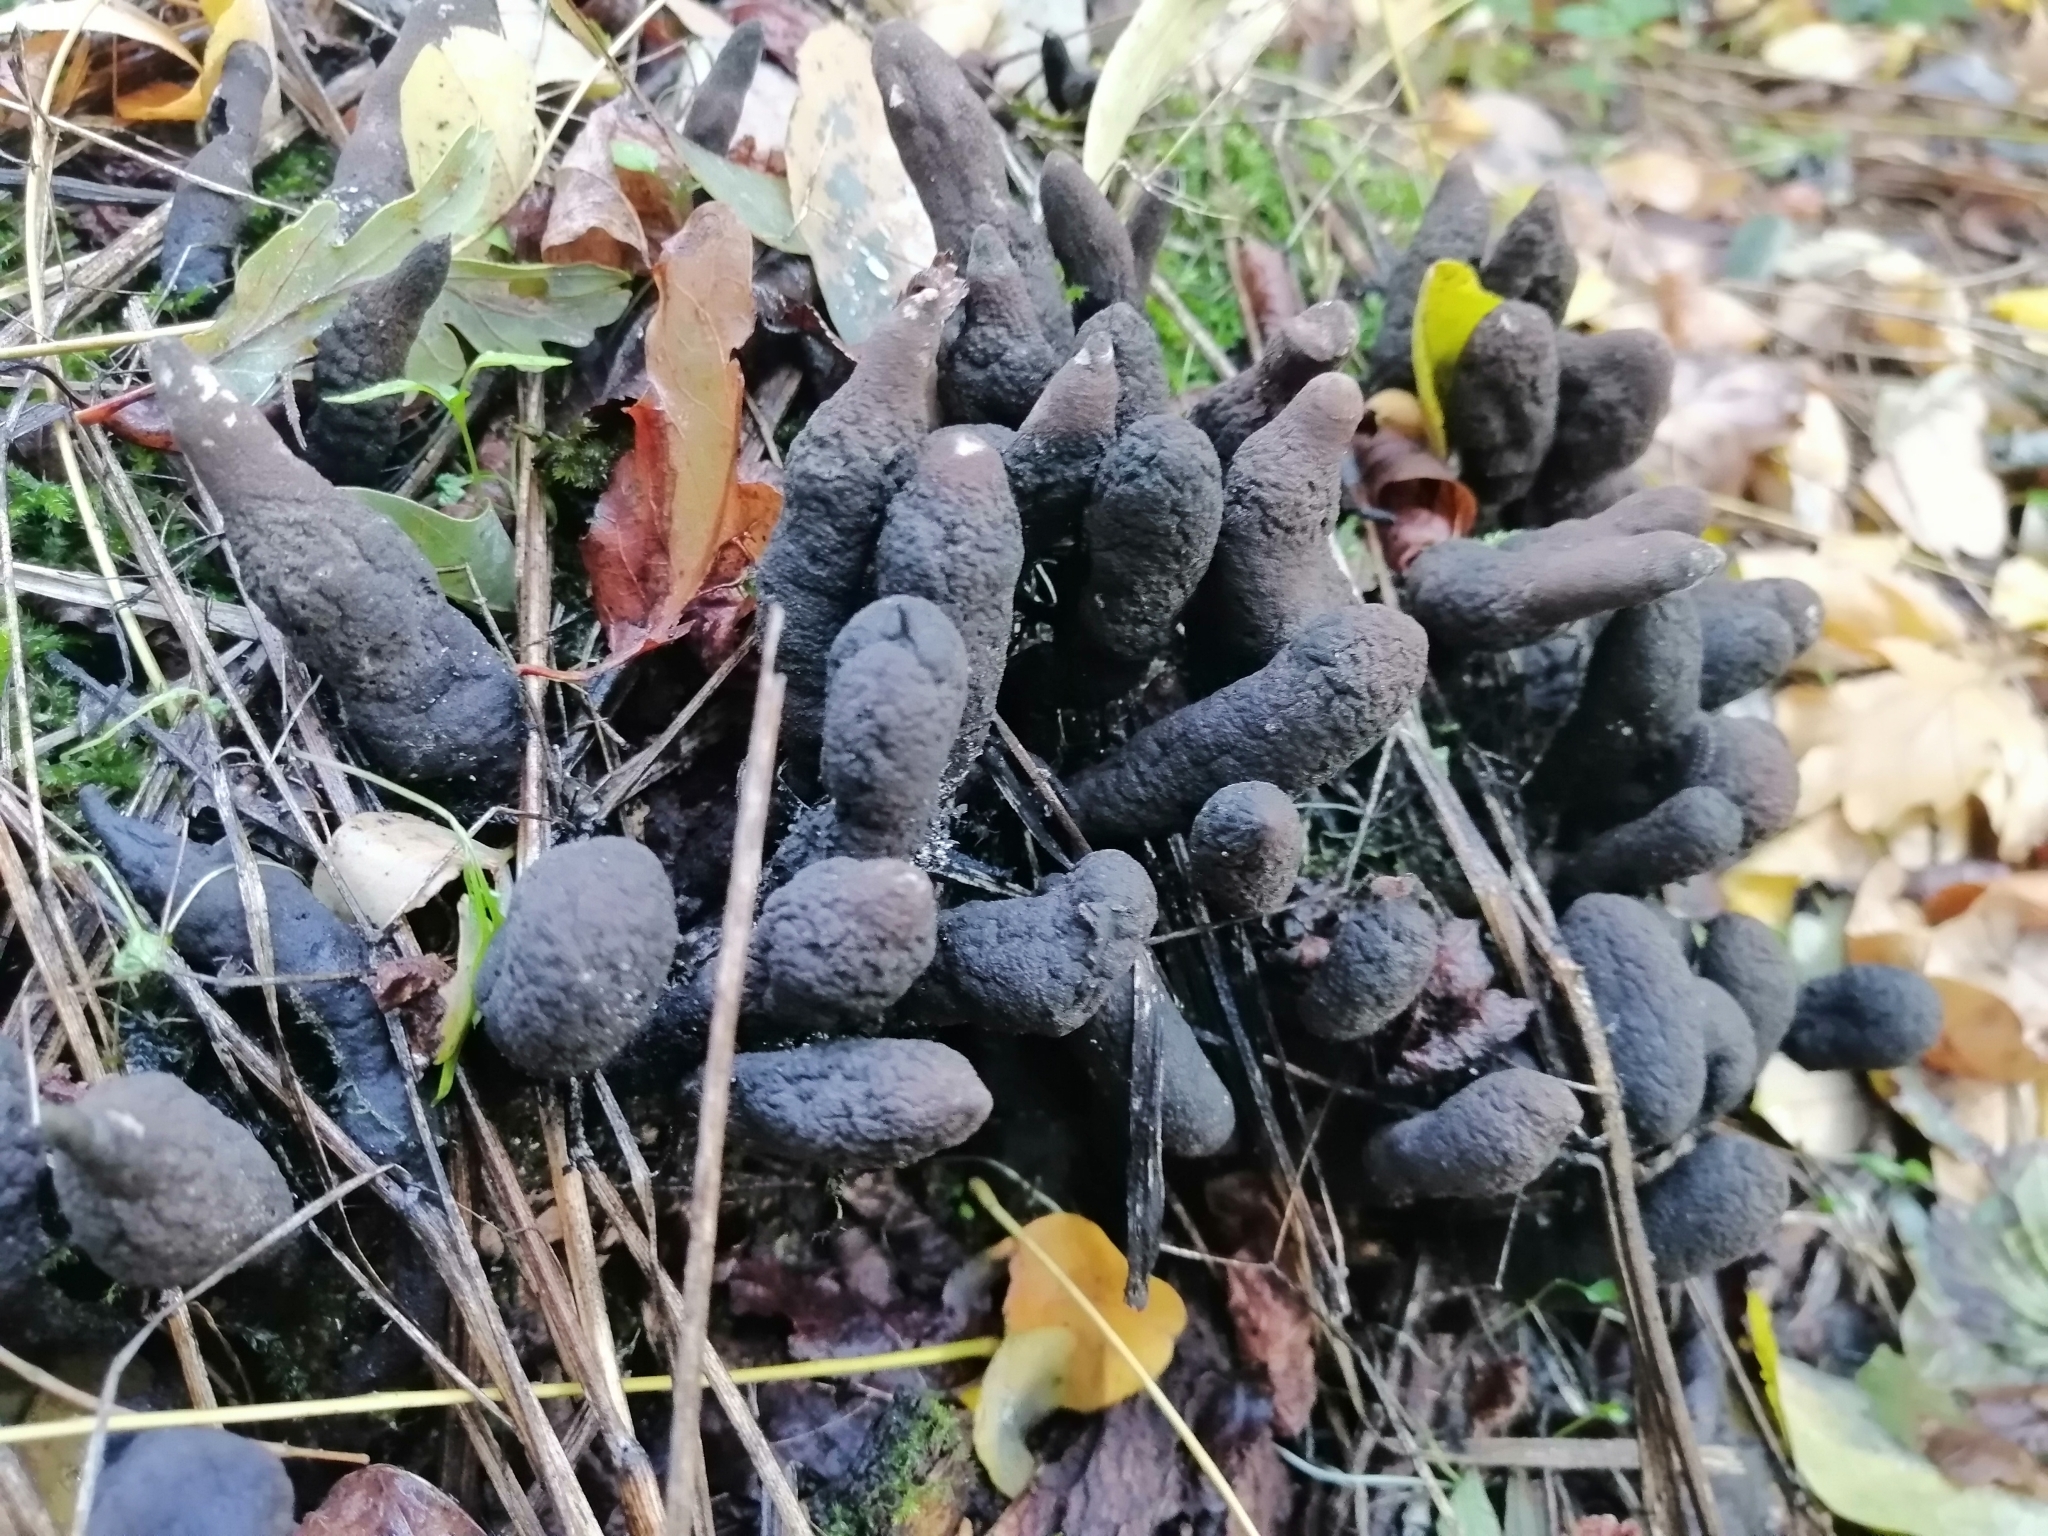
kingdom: Fungi
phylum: Ascomycota
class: Sordariomycetes
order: Xylariales
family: Xylariaceae
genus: Xylaria
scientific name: Xylaria polymorpha
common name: Dead man's fingers
